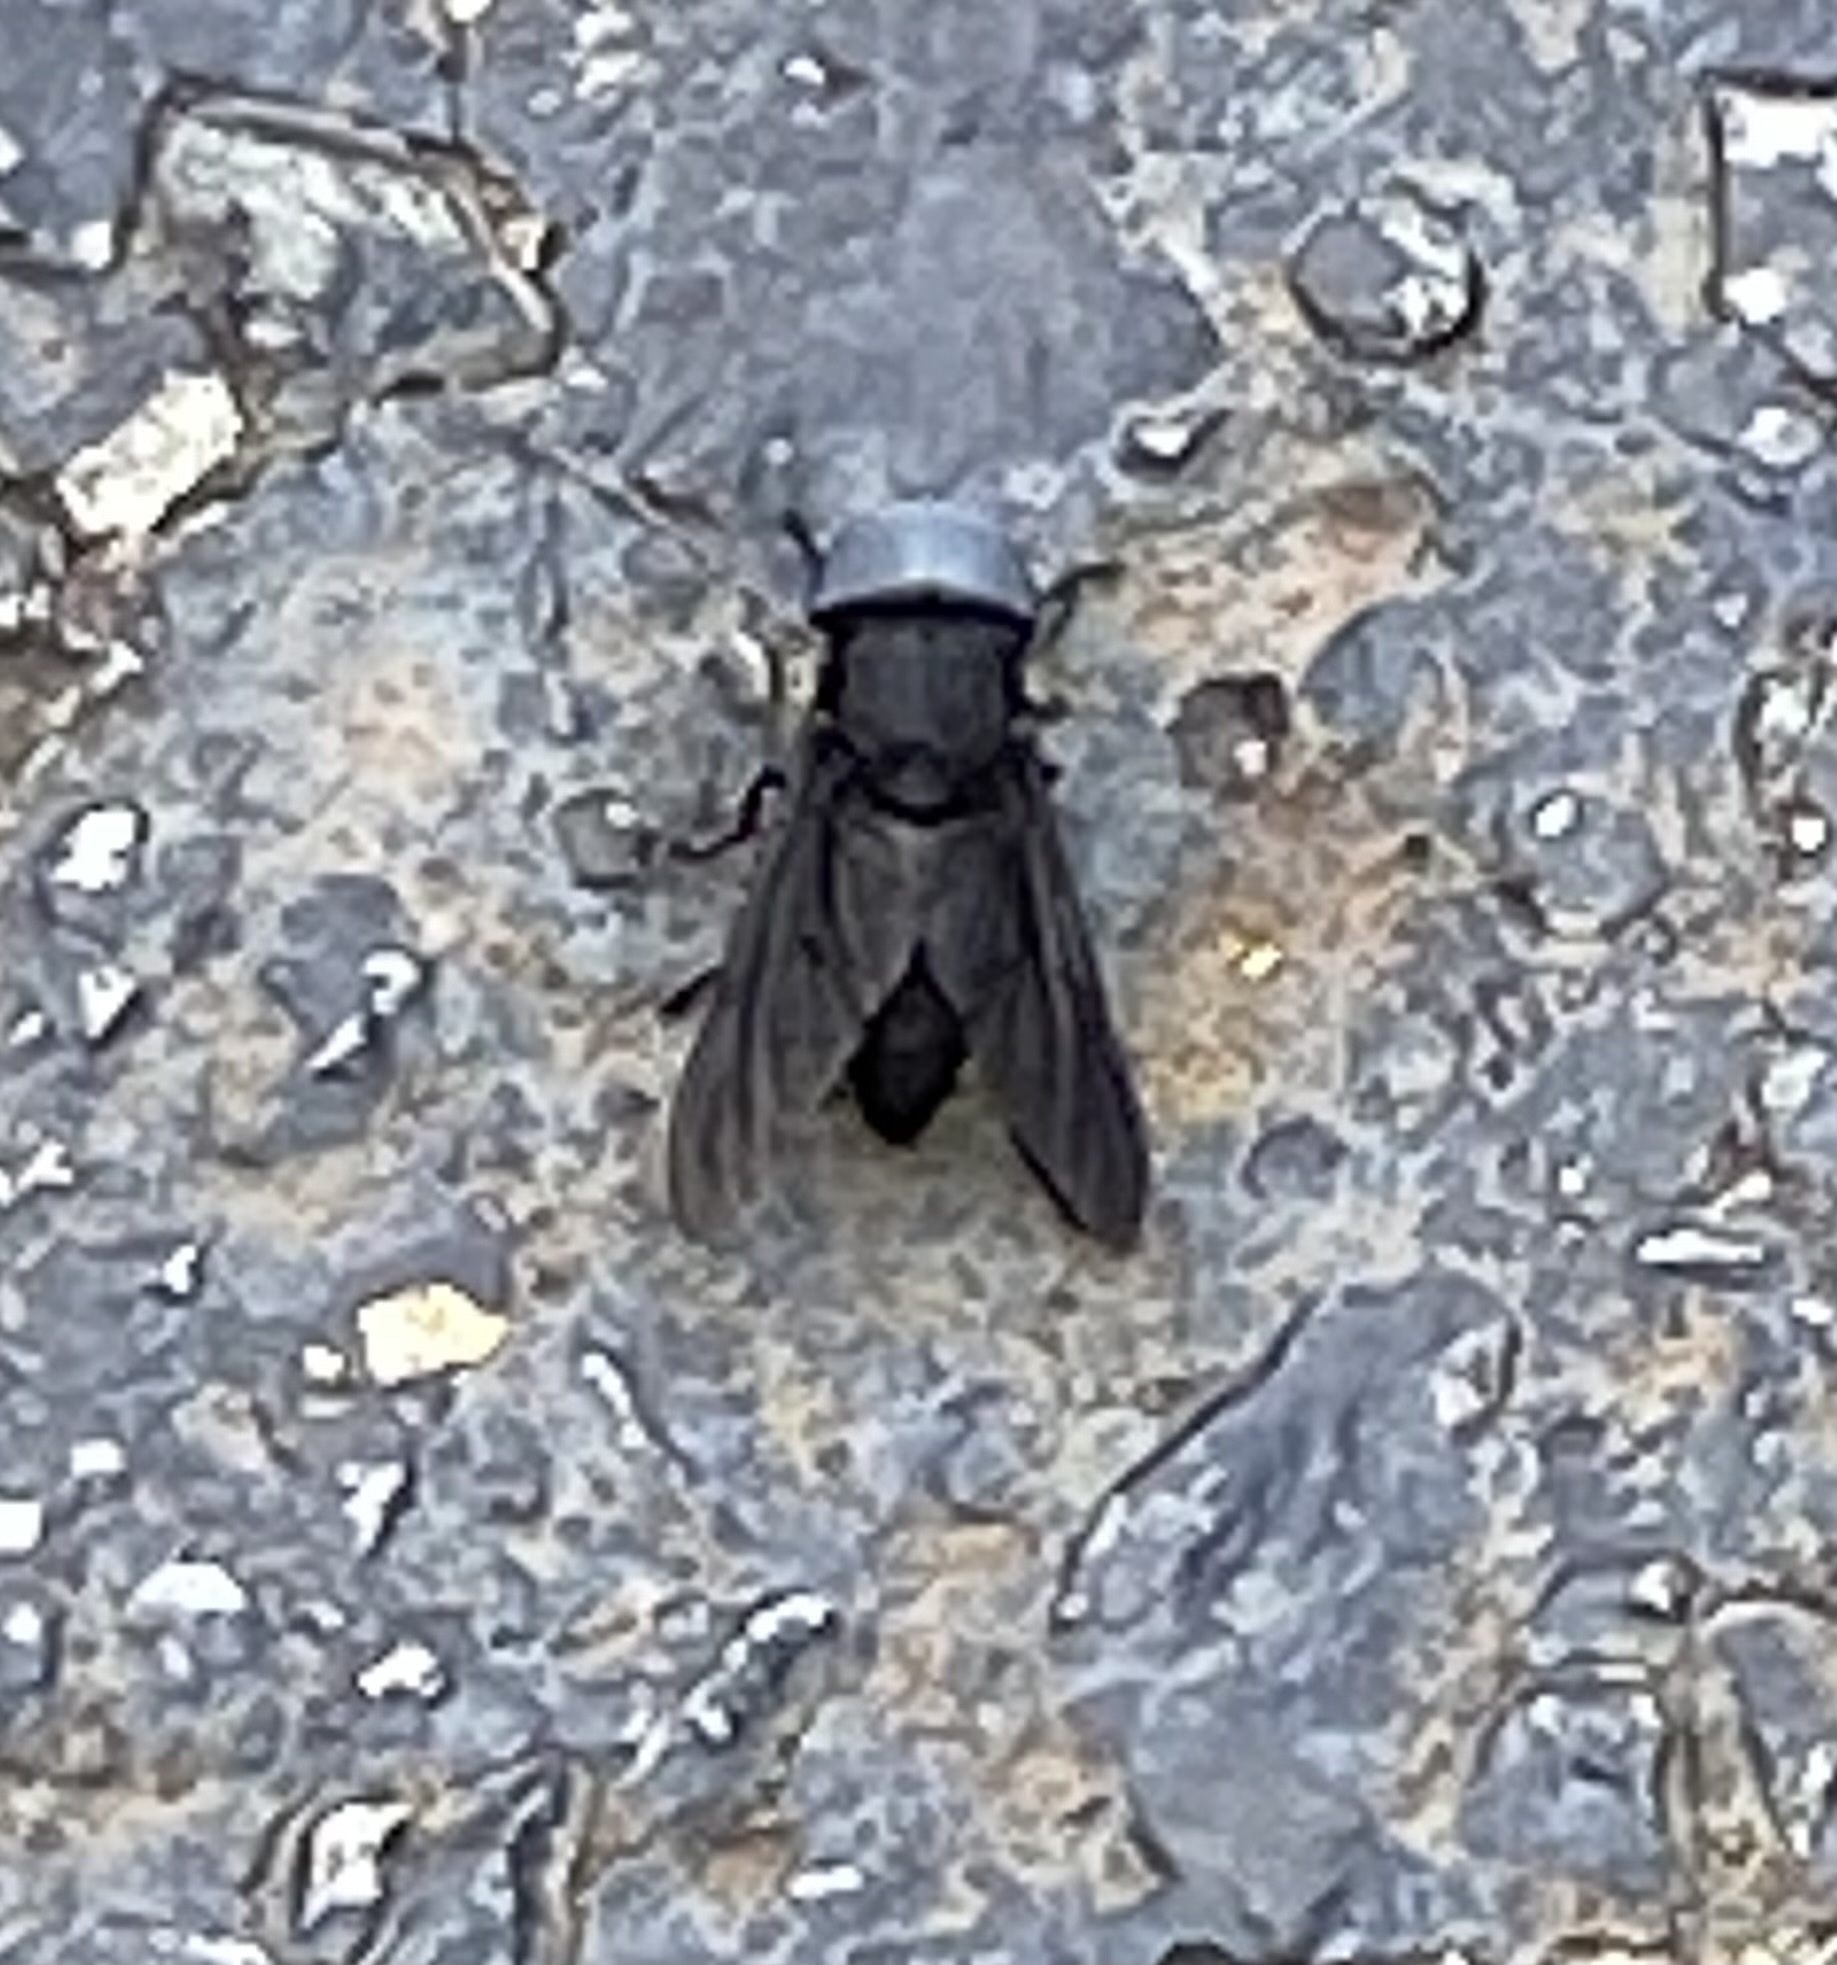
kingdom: Animalia
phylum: Arthropoda
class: Insecta
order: Diptera
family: Tabanidae
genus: Tabanus
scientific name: Tabanus atratus
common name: Black horse fly
